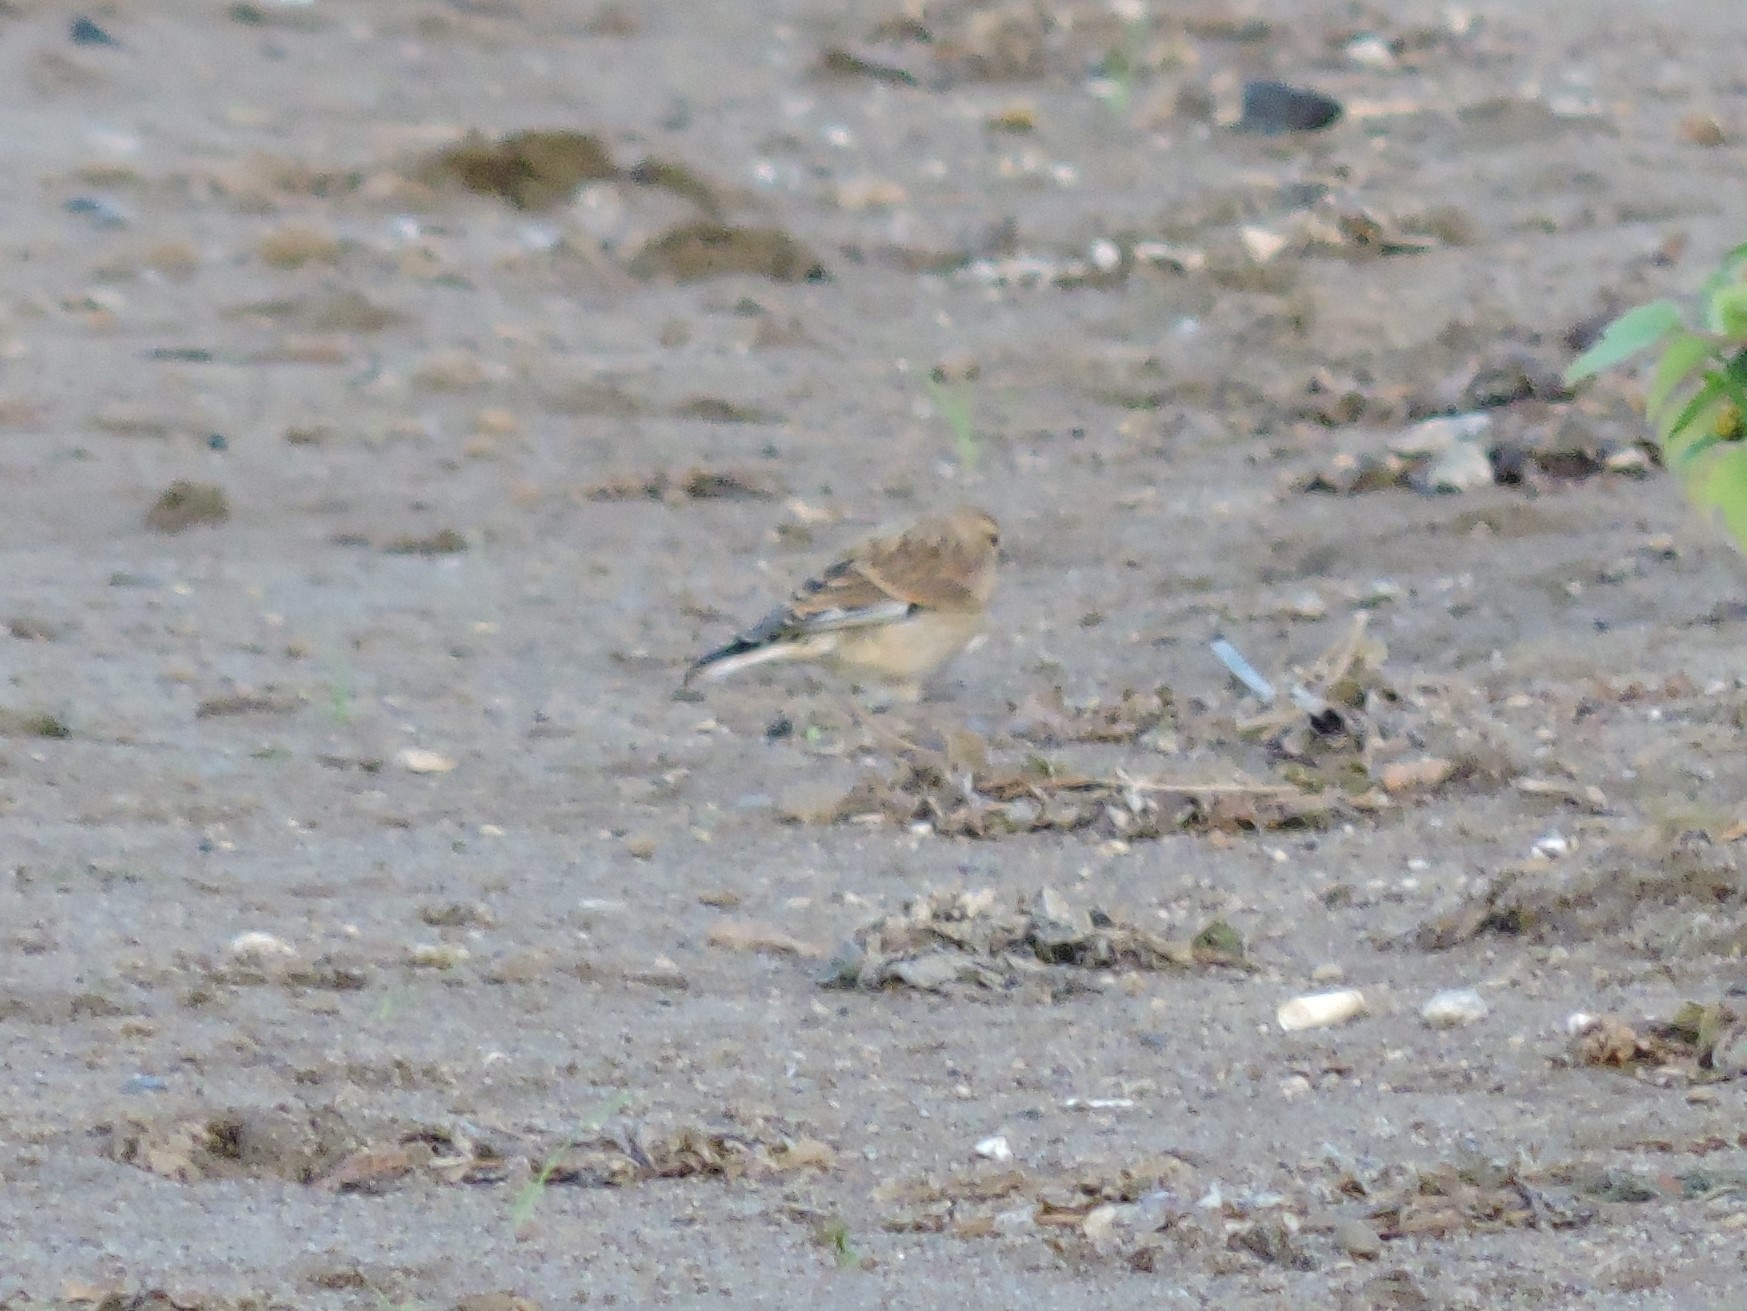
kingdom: Animalia
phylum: Chordata
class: Aves
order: Passeriformes
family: Fringillidae
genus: Linaria
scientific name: Linaria cannabina
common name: Common linnet
